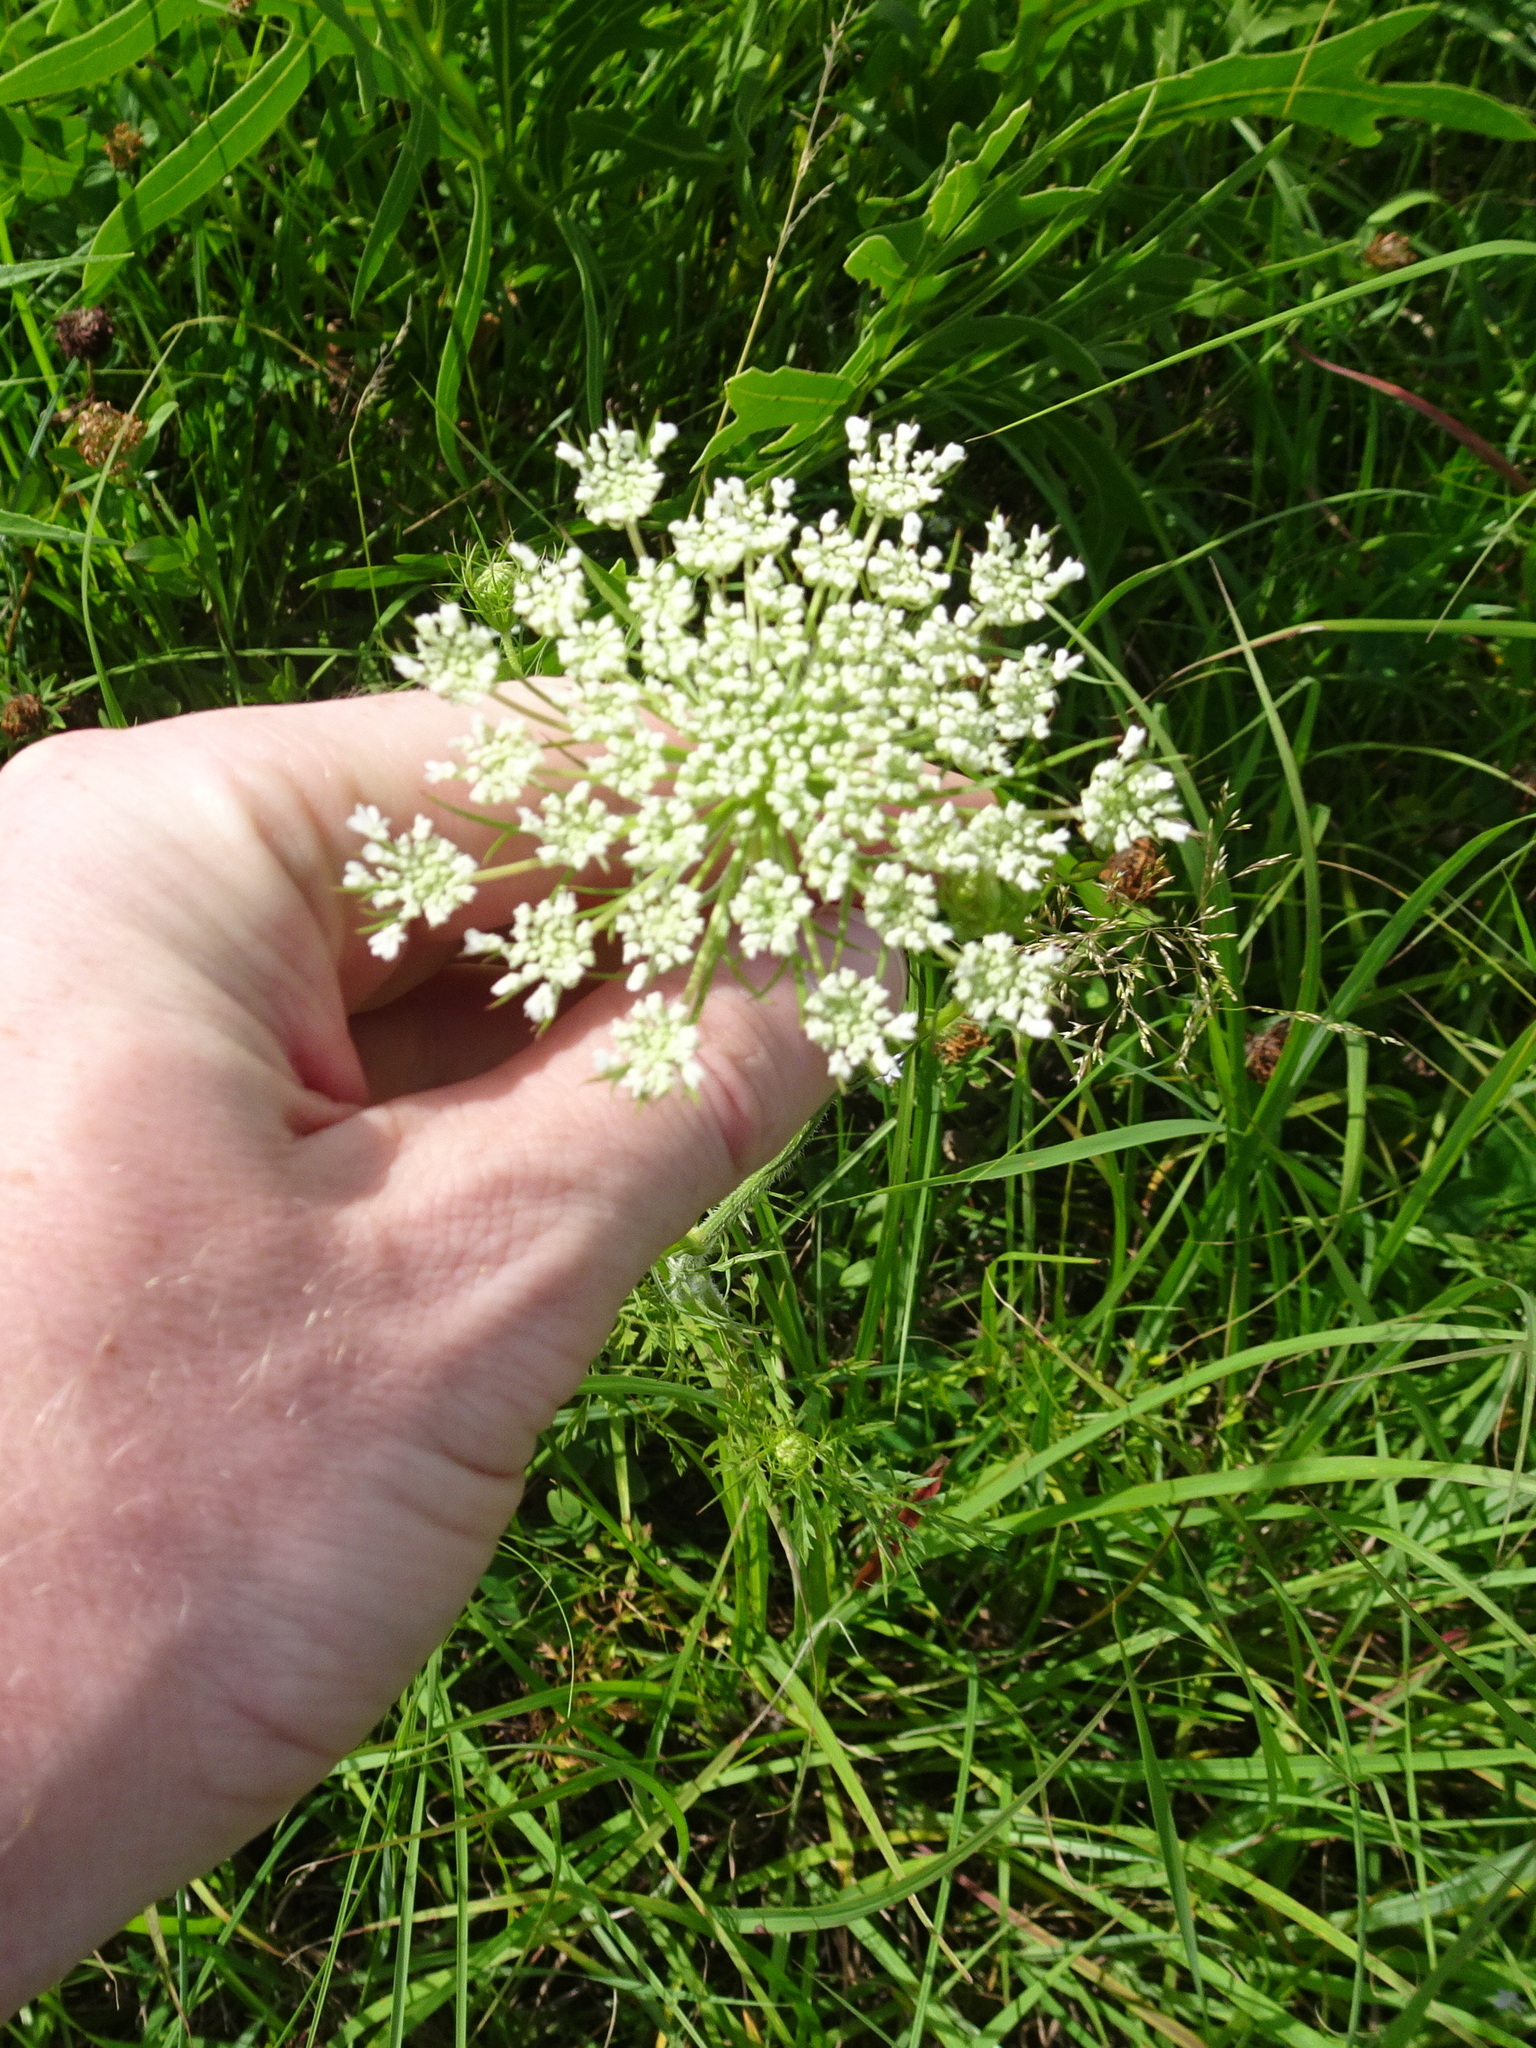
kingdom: Plantae
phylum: Tracheophyta
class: Magnoliopsida
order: Apiales
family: Apiaceae
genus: Daucus
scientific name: Daucus carota
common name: Wild carrot
